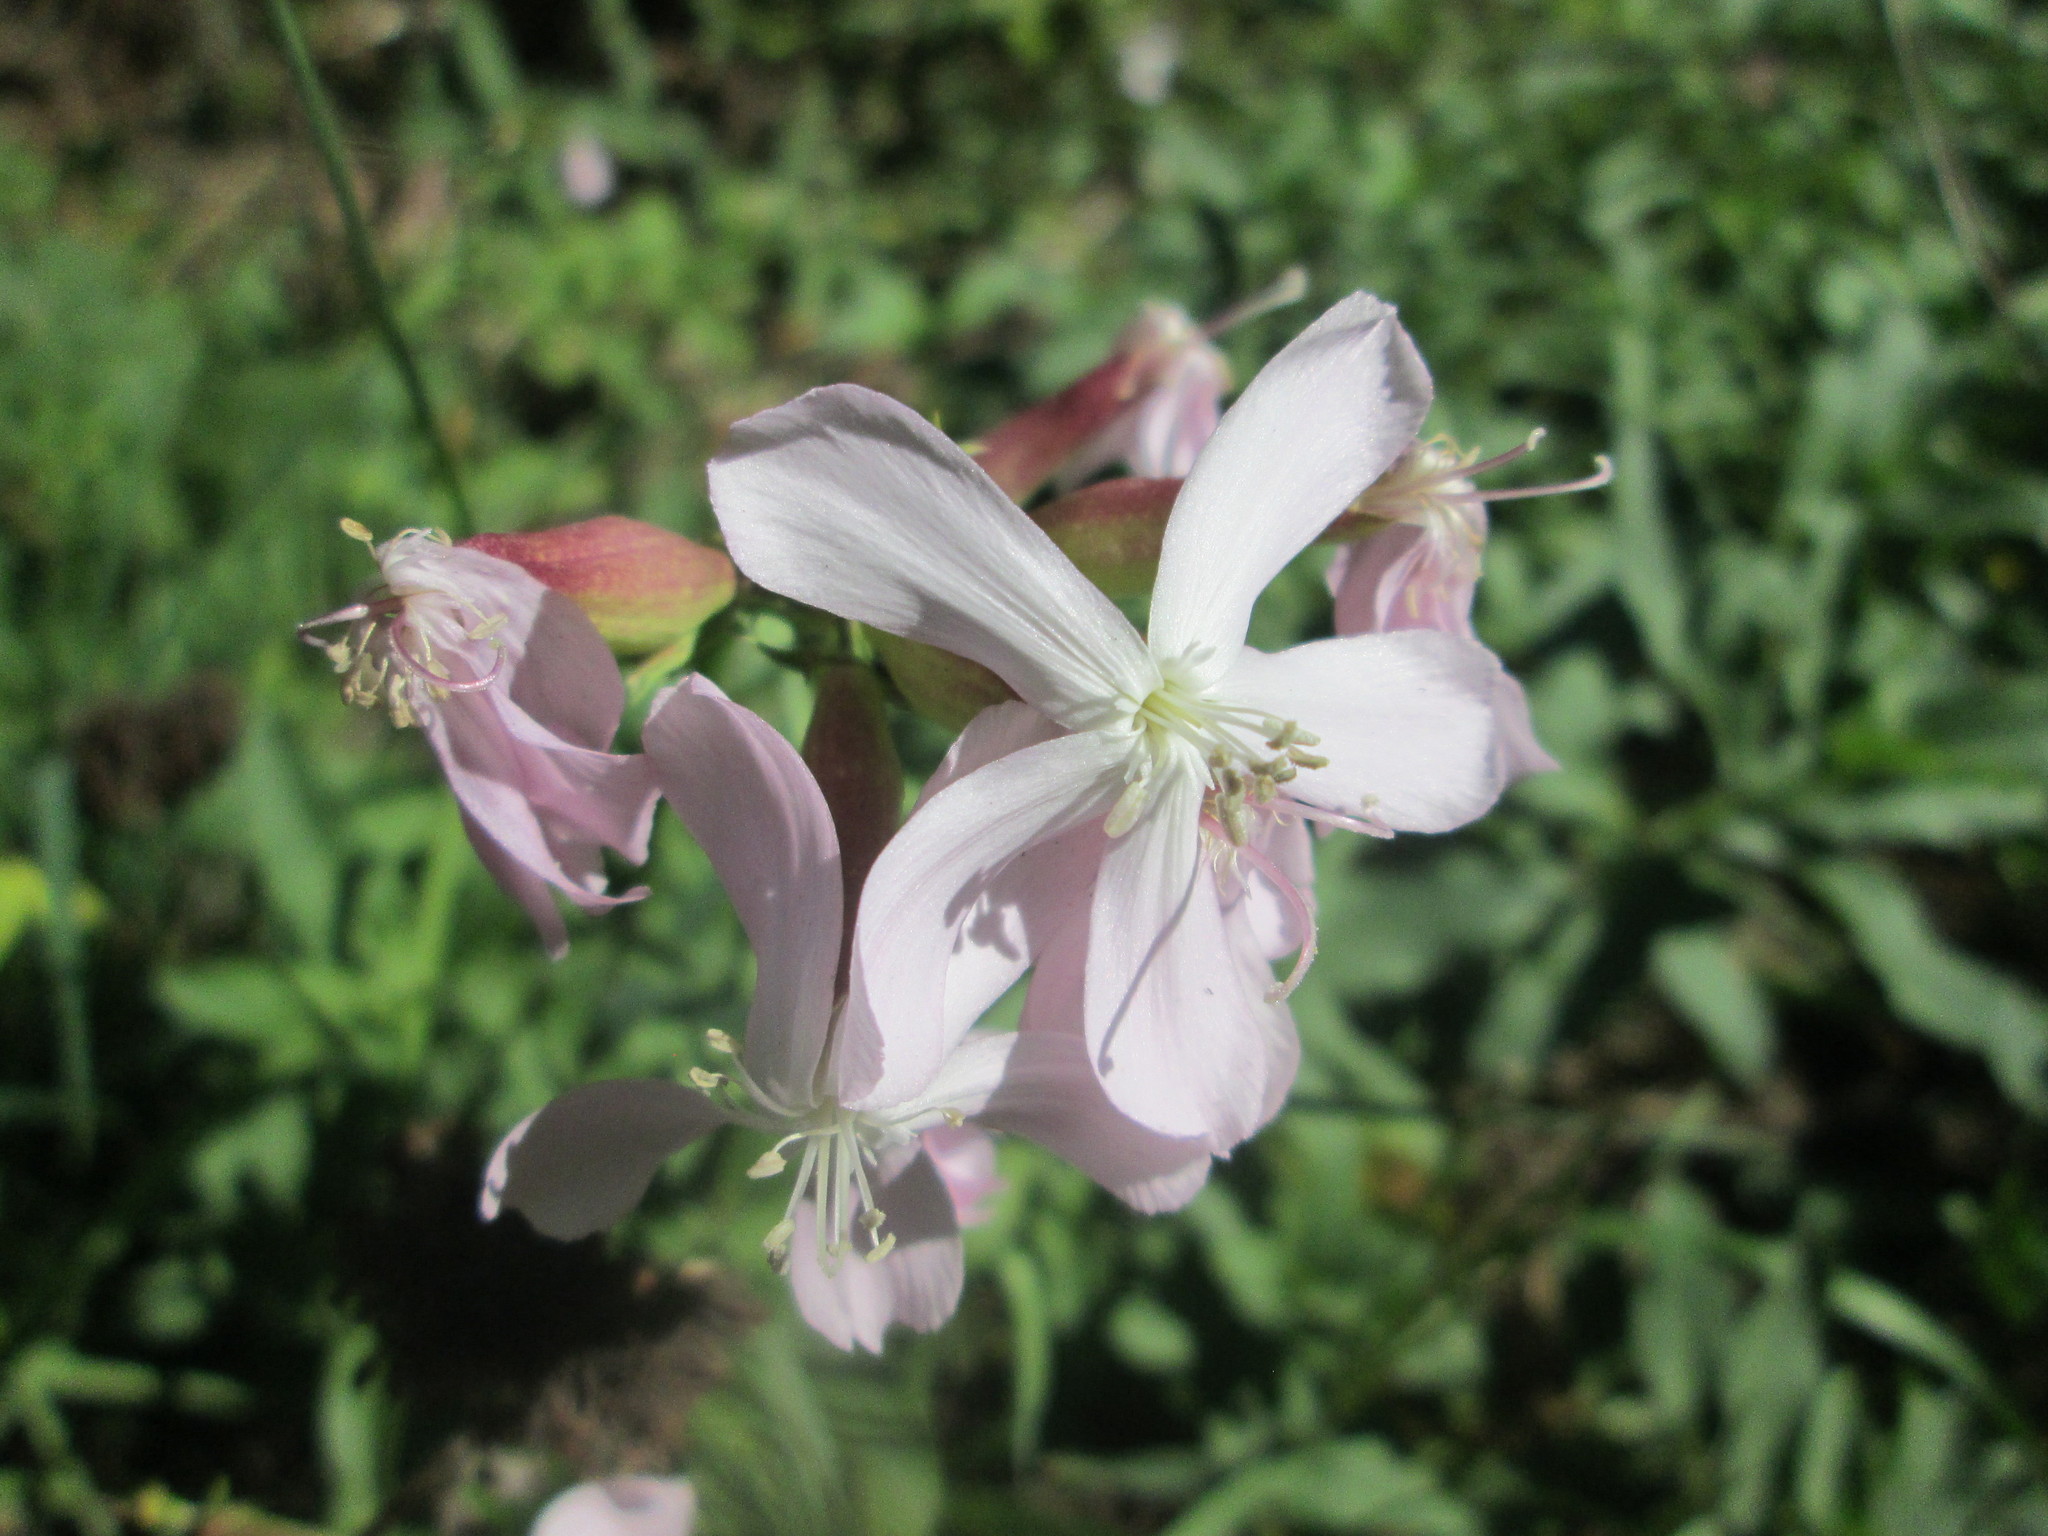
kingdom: Plantae
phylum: Tracheophyta
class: Magnoliopsida
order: Caryophyllales
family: Caryophyllaceae
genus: Saponaria
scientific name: Saponaria officinalis
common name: Soapwort
